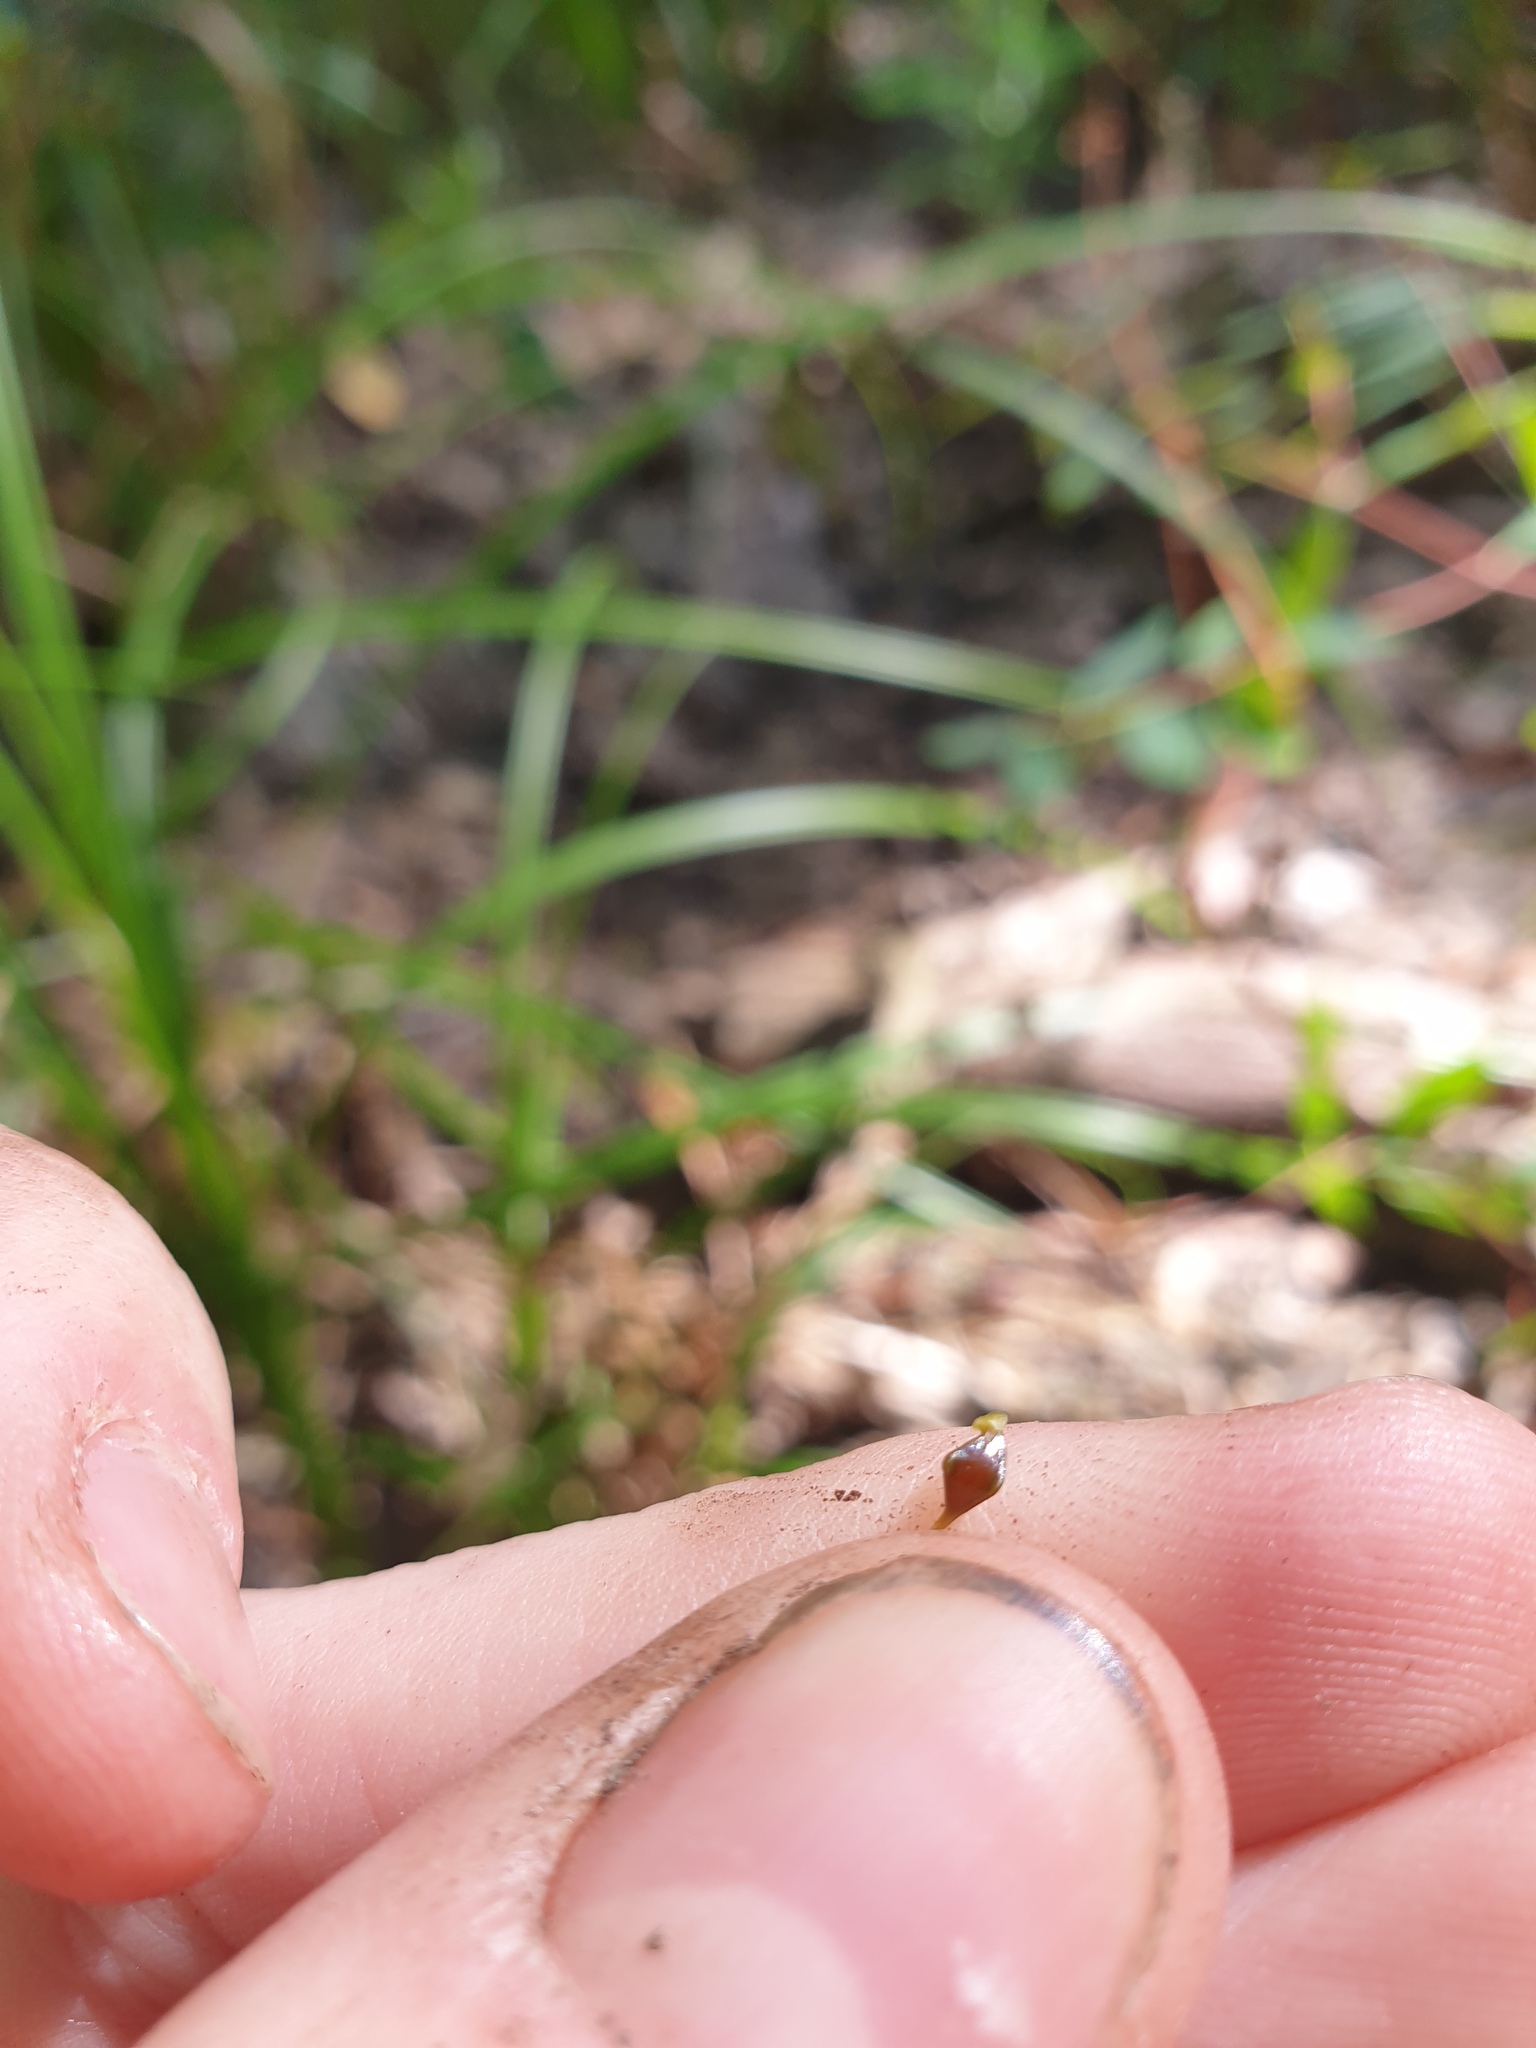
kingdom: Plantae
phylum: Tracheophyta
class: Liliopsida
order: Poales
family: Cyperaceae
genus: Carex
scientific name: Carex lupuliformis
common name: False hop sedge
